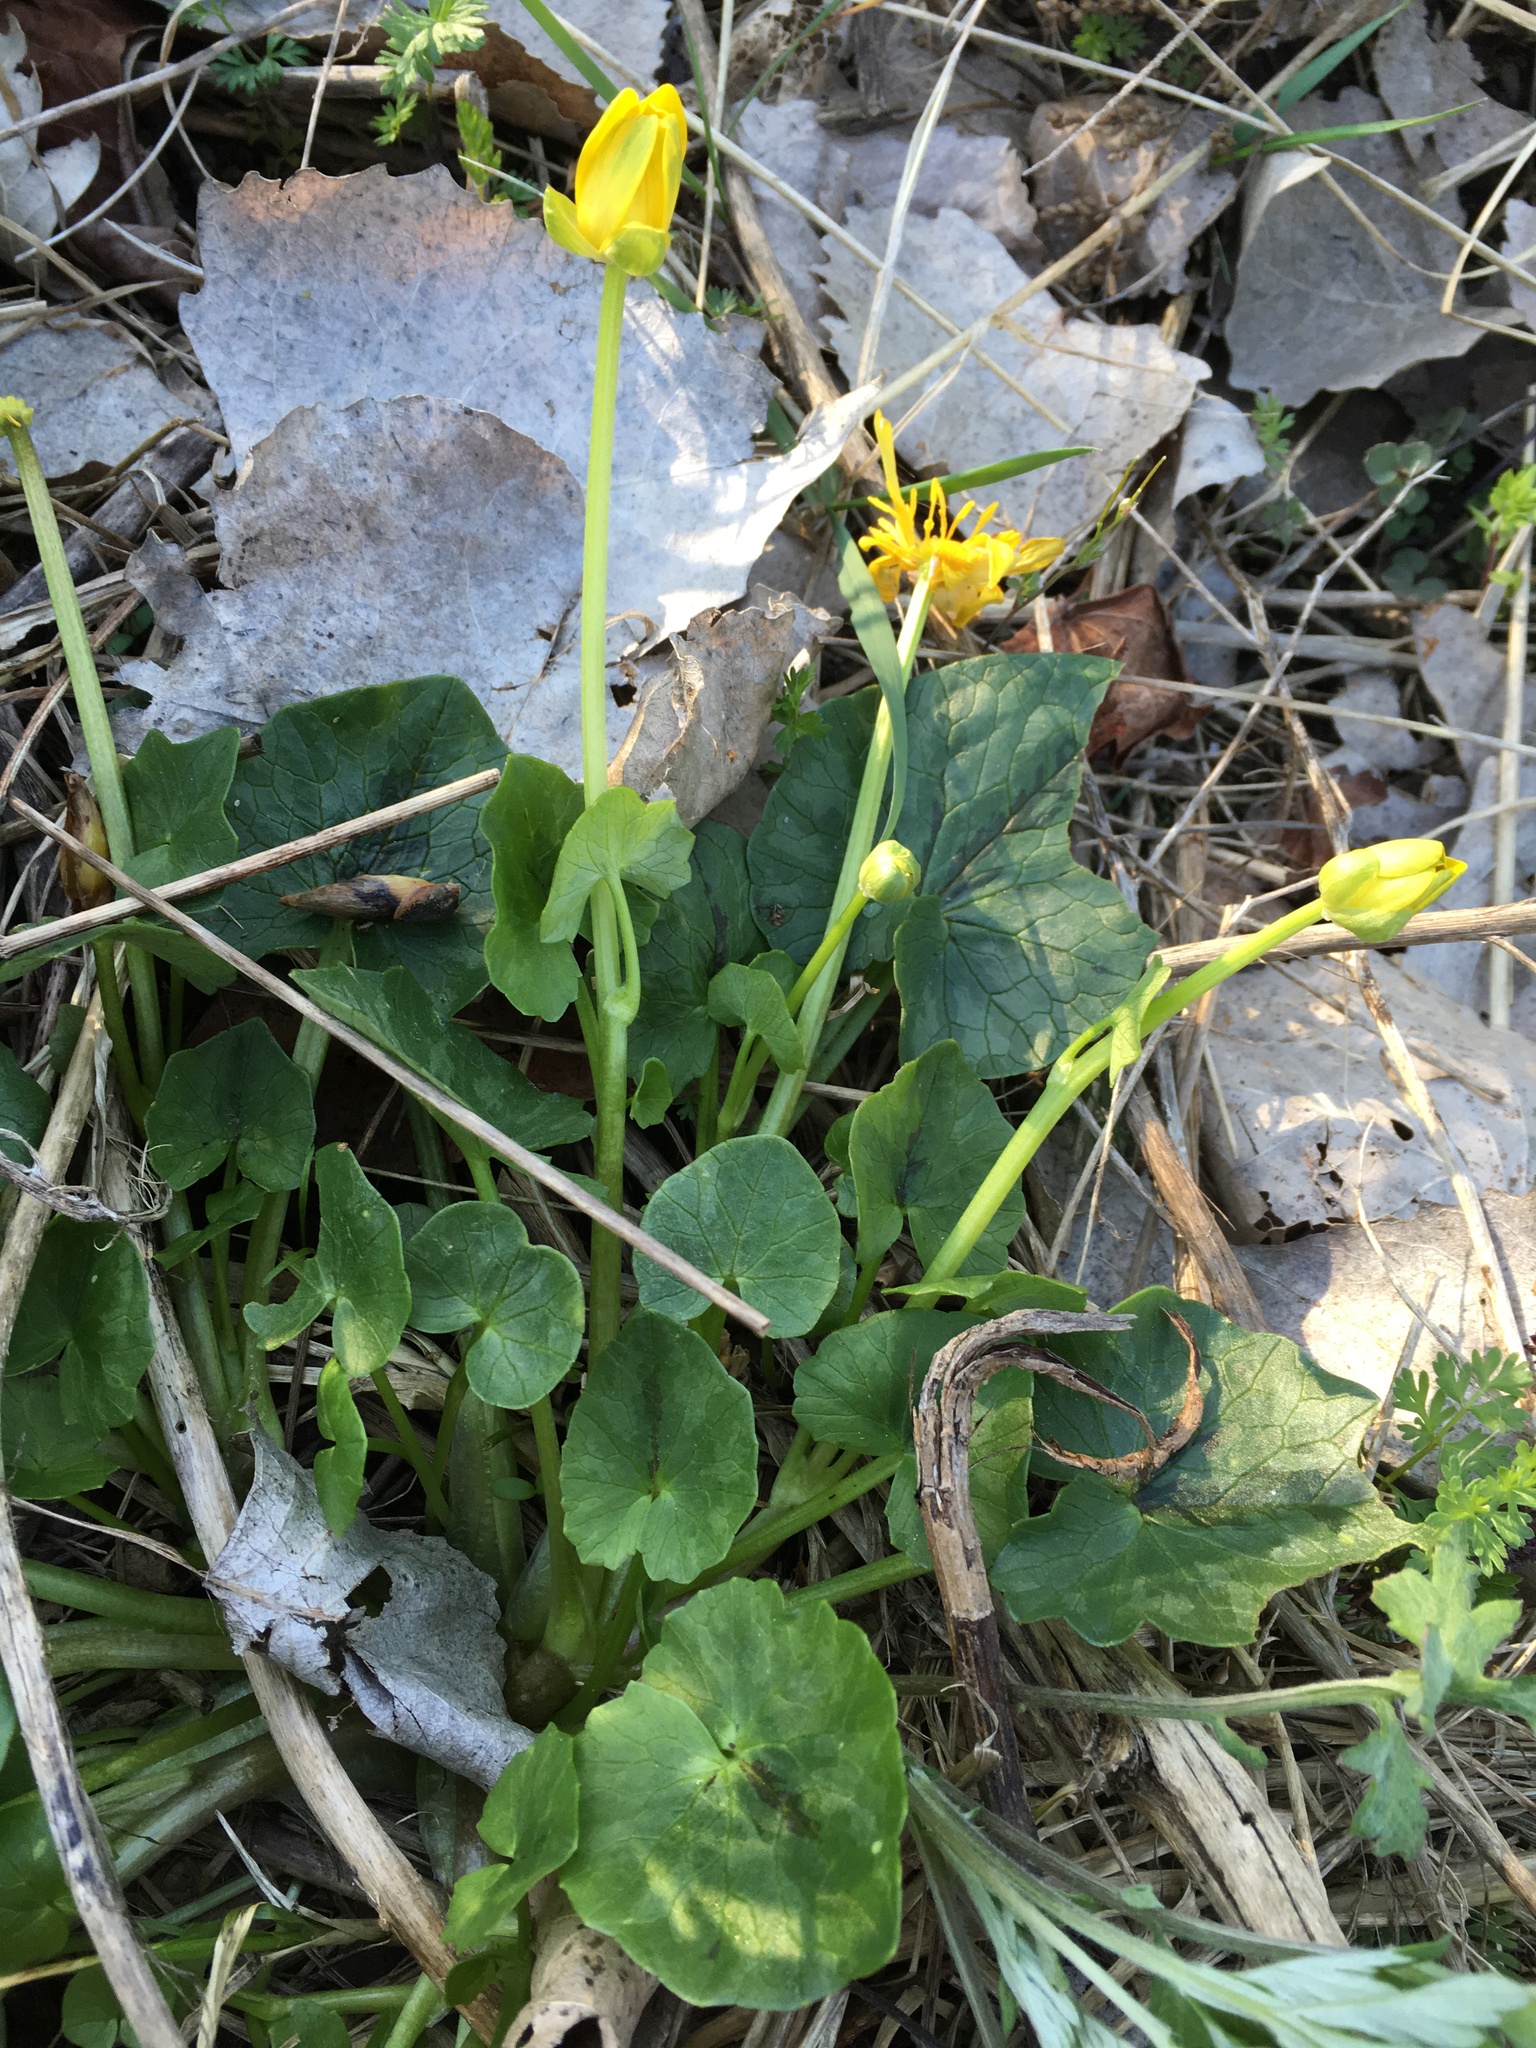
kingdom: Plantae
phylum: Tracheophyta
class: Magnoliopsida
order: Ranunculales
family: Ranunculaceae
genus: Ficaria
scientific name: Ficaria verna
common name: Lesser celandine
